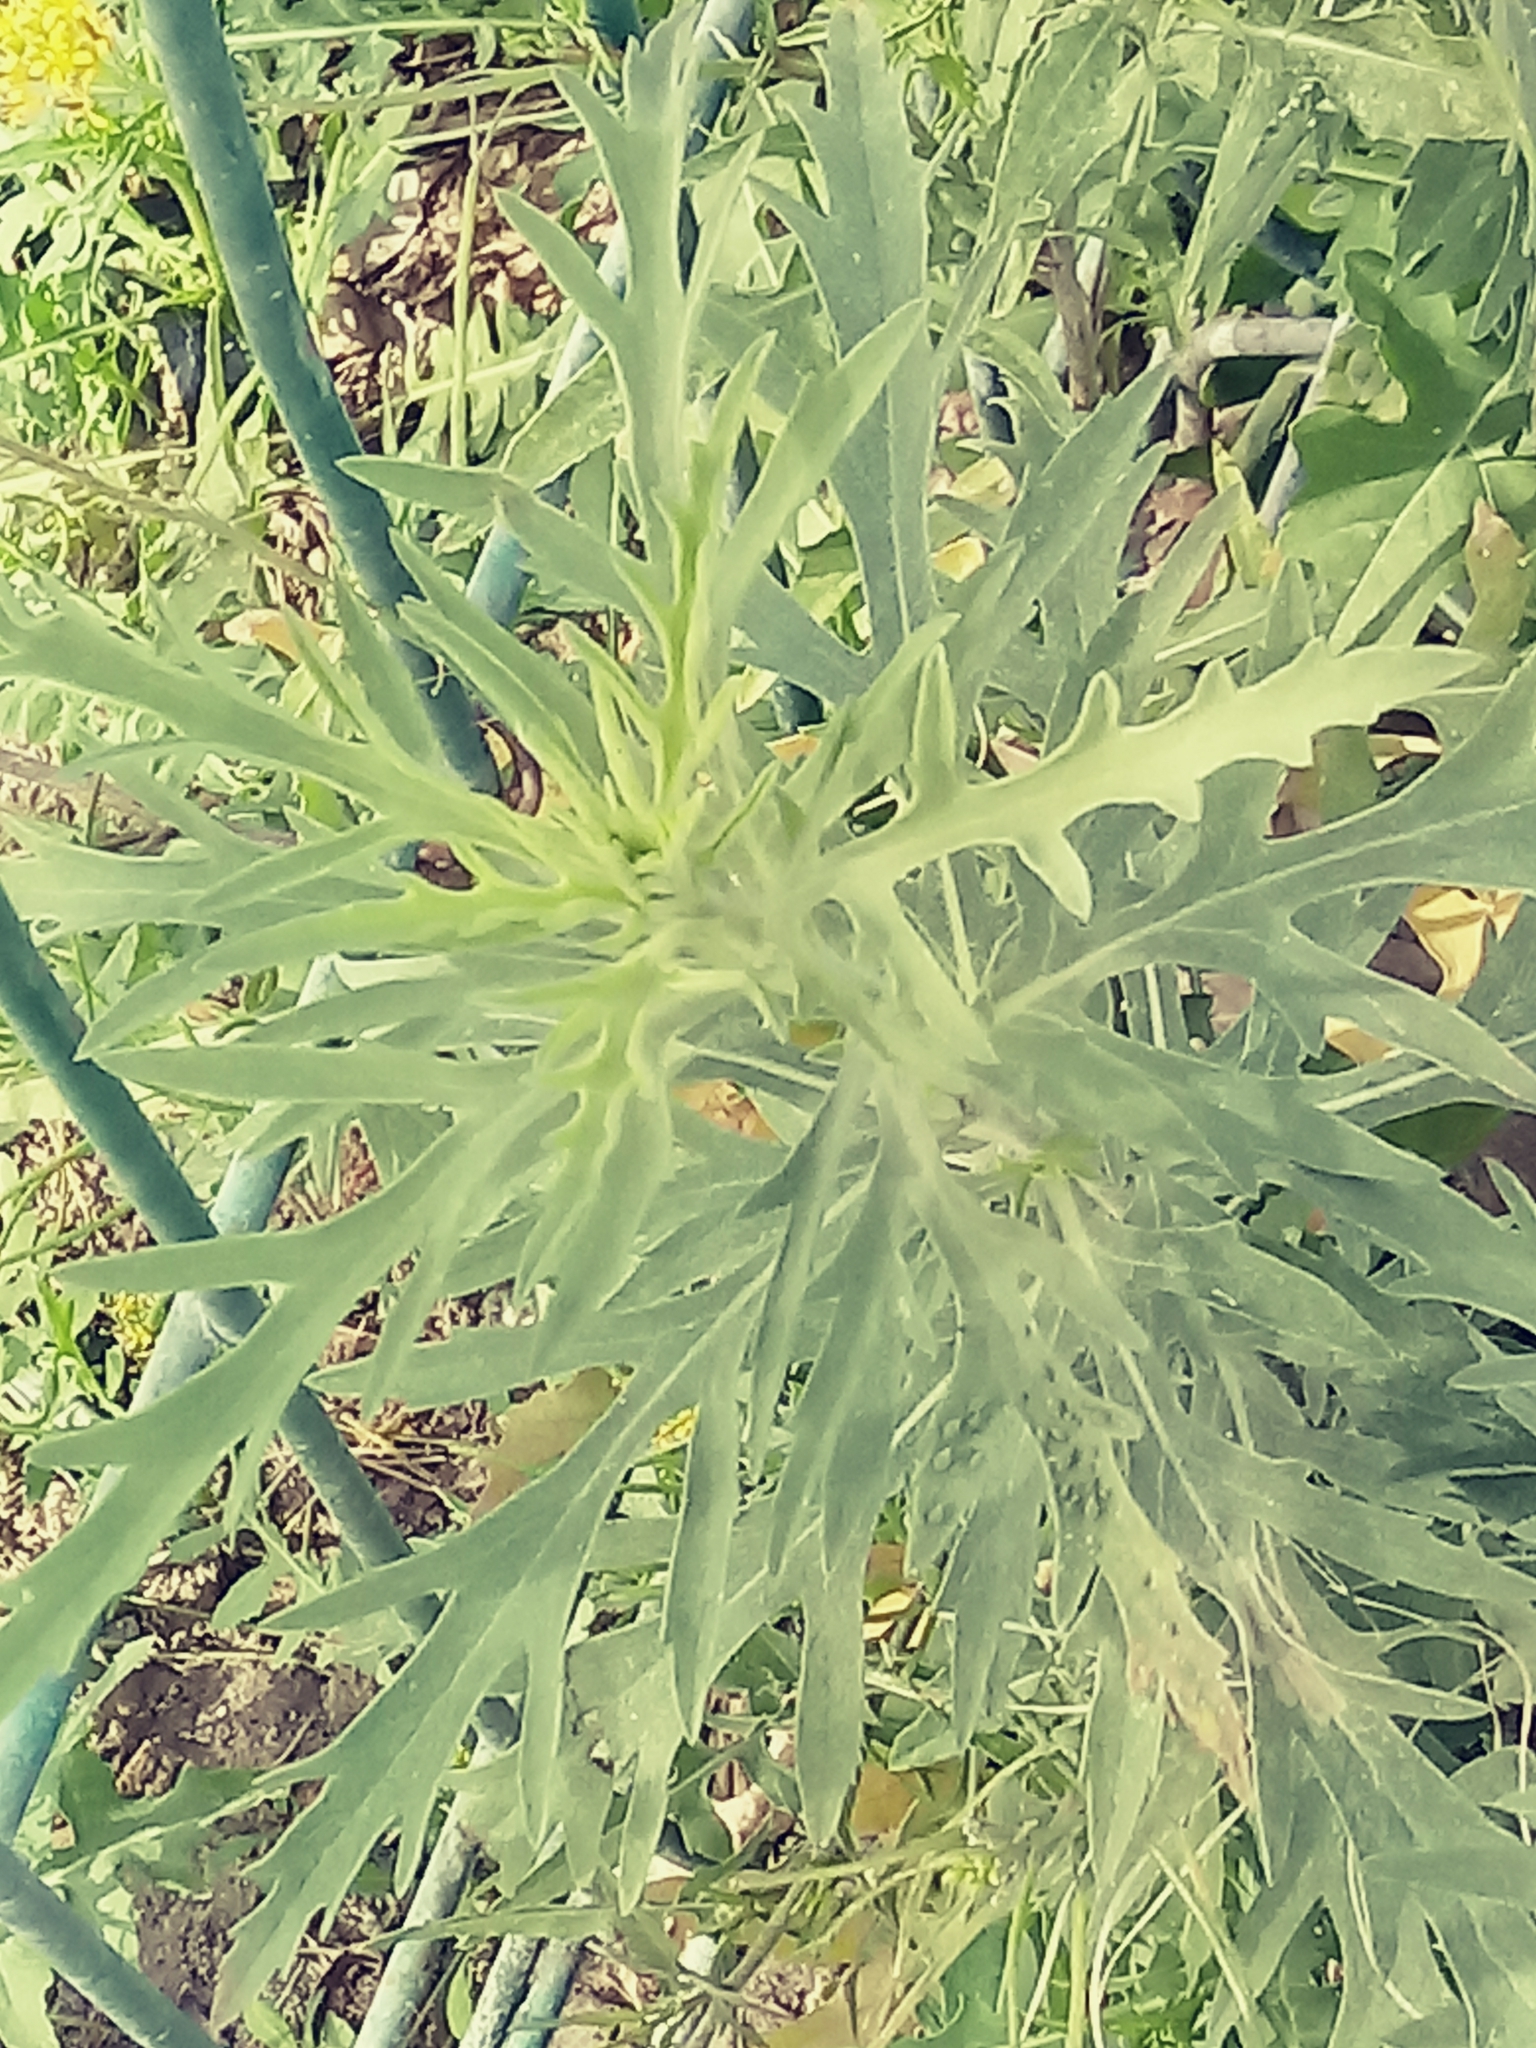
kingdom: Plantae
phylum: Tracheophyta
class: Magnoliopsida
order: Asterales
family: Asteraceae
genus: Ambrosia
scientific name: Ambrosia psilostachya
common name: Perennial ragweed
